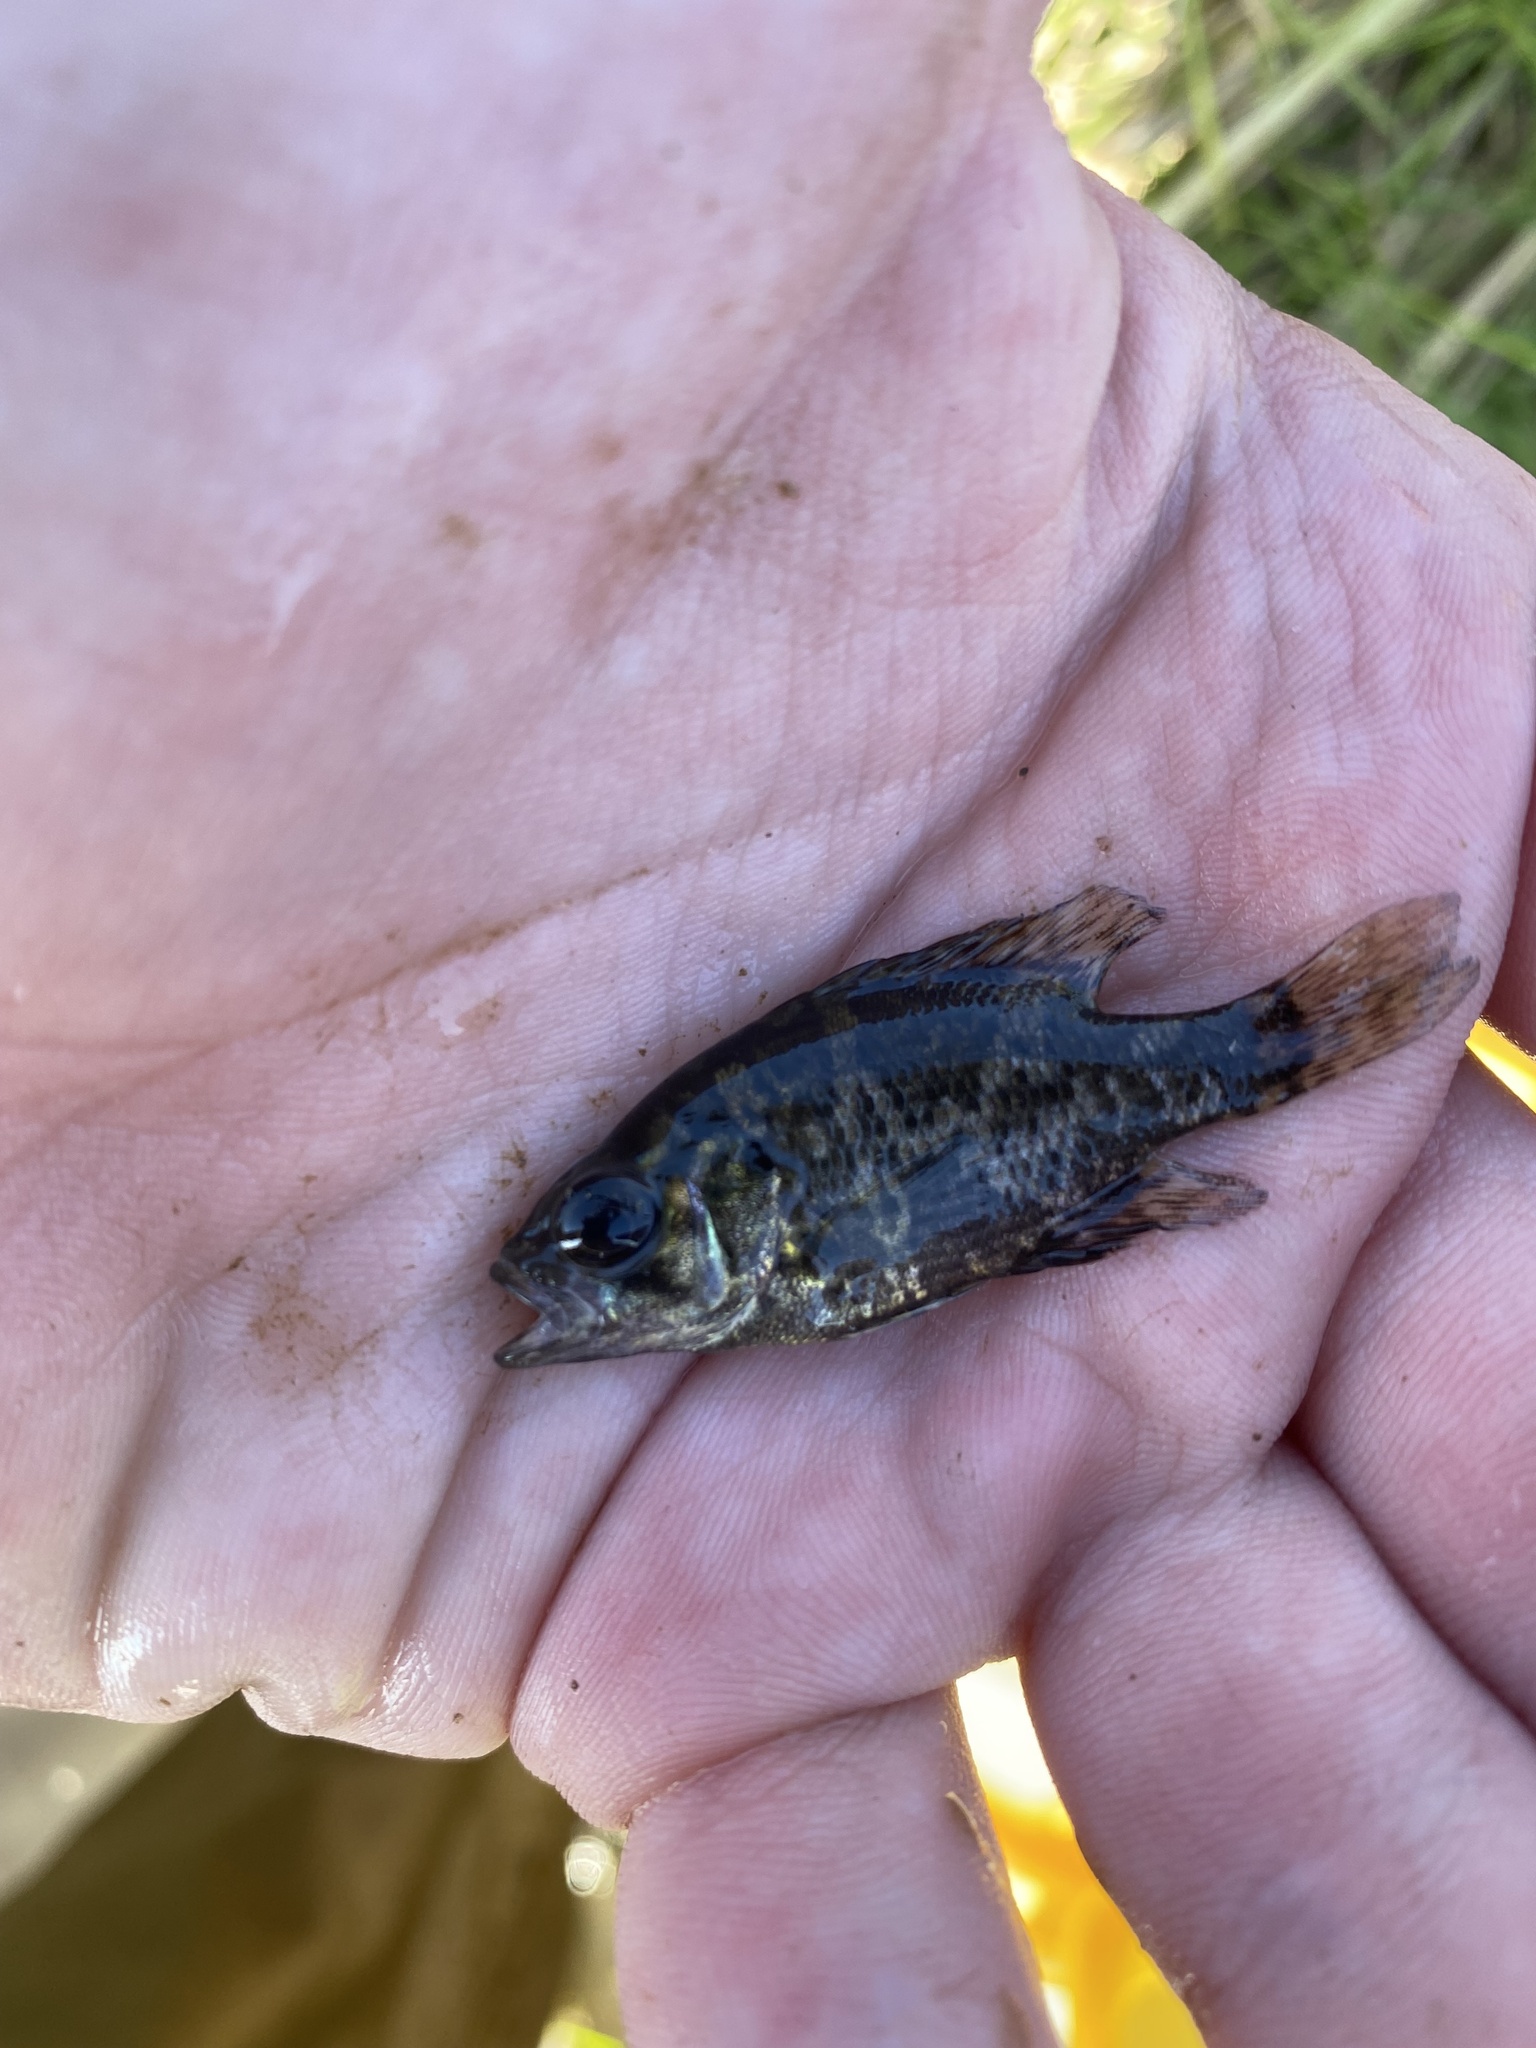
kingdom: Animalia
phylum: Chordata
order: Perciformes
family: Centrarchidae
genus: Ambloplites
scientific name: Ambloplites rupestris
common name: Rock bass
